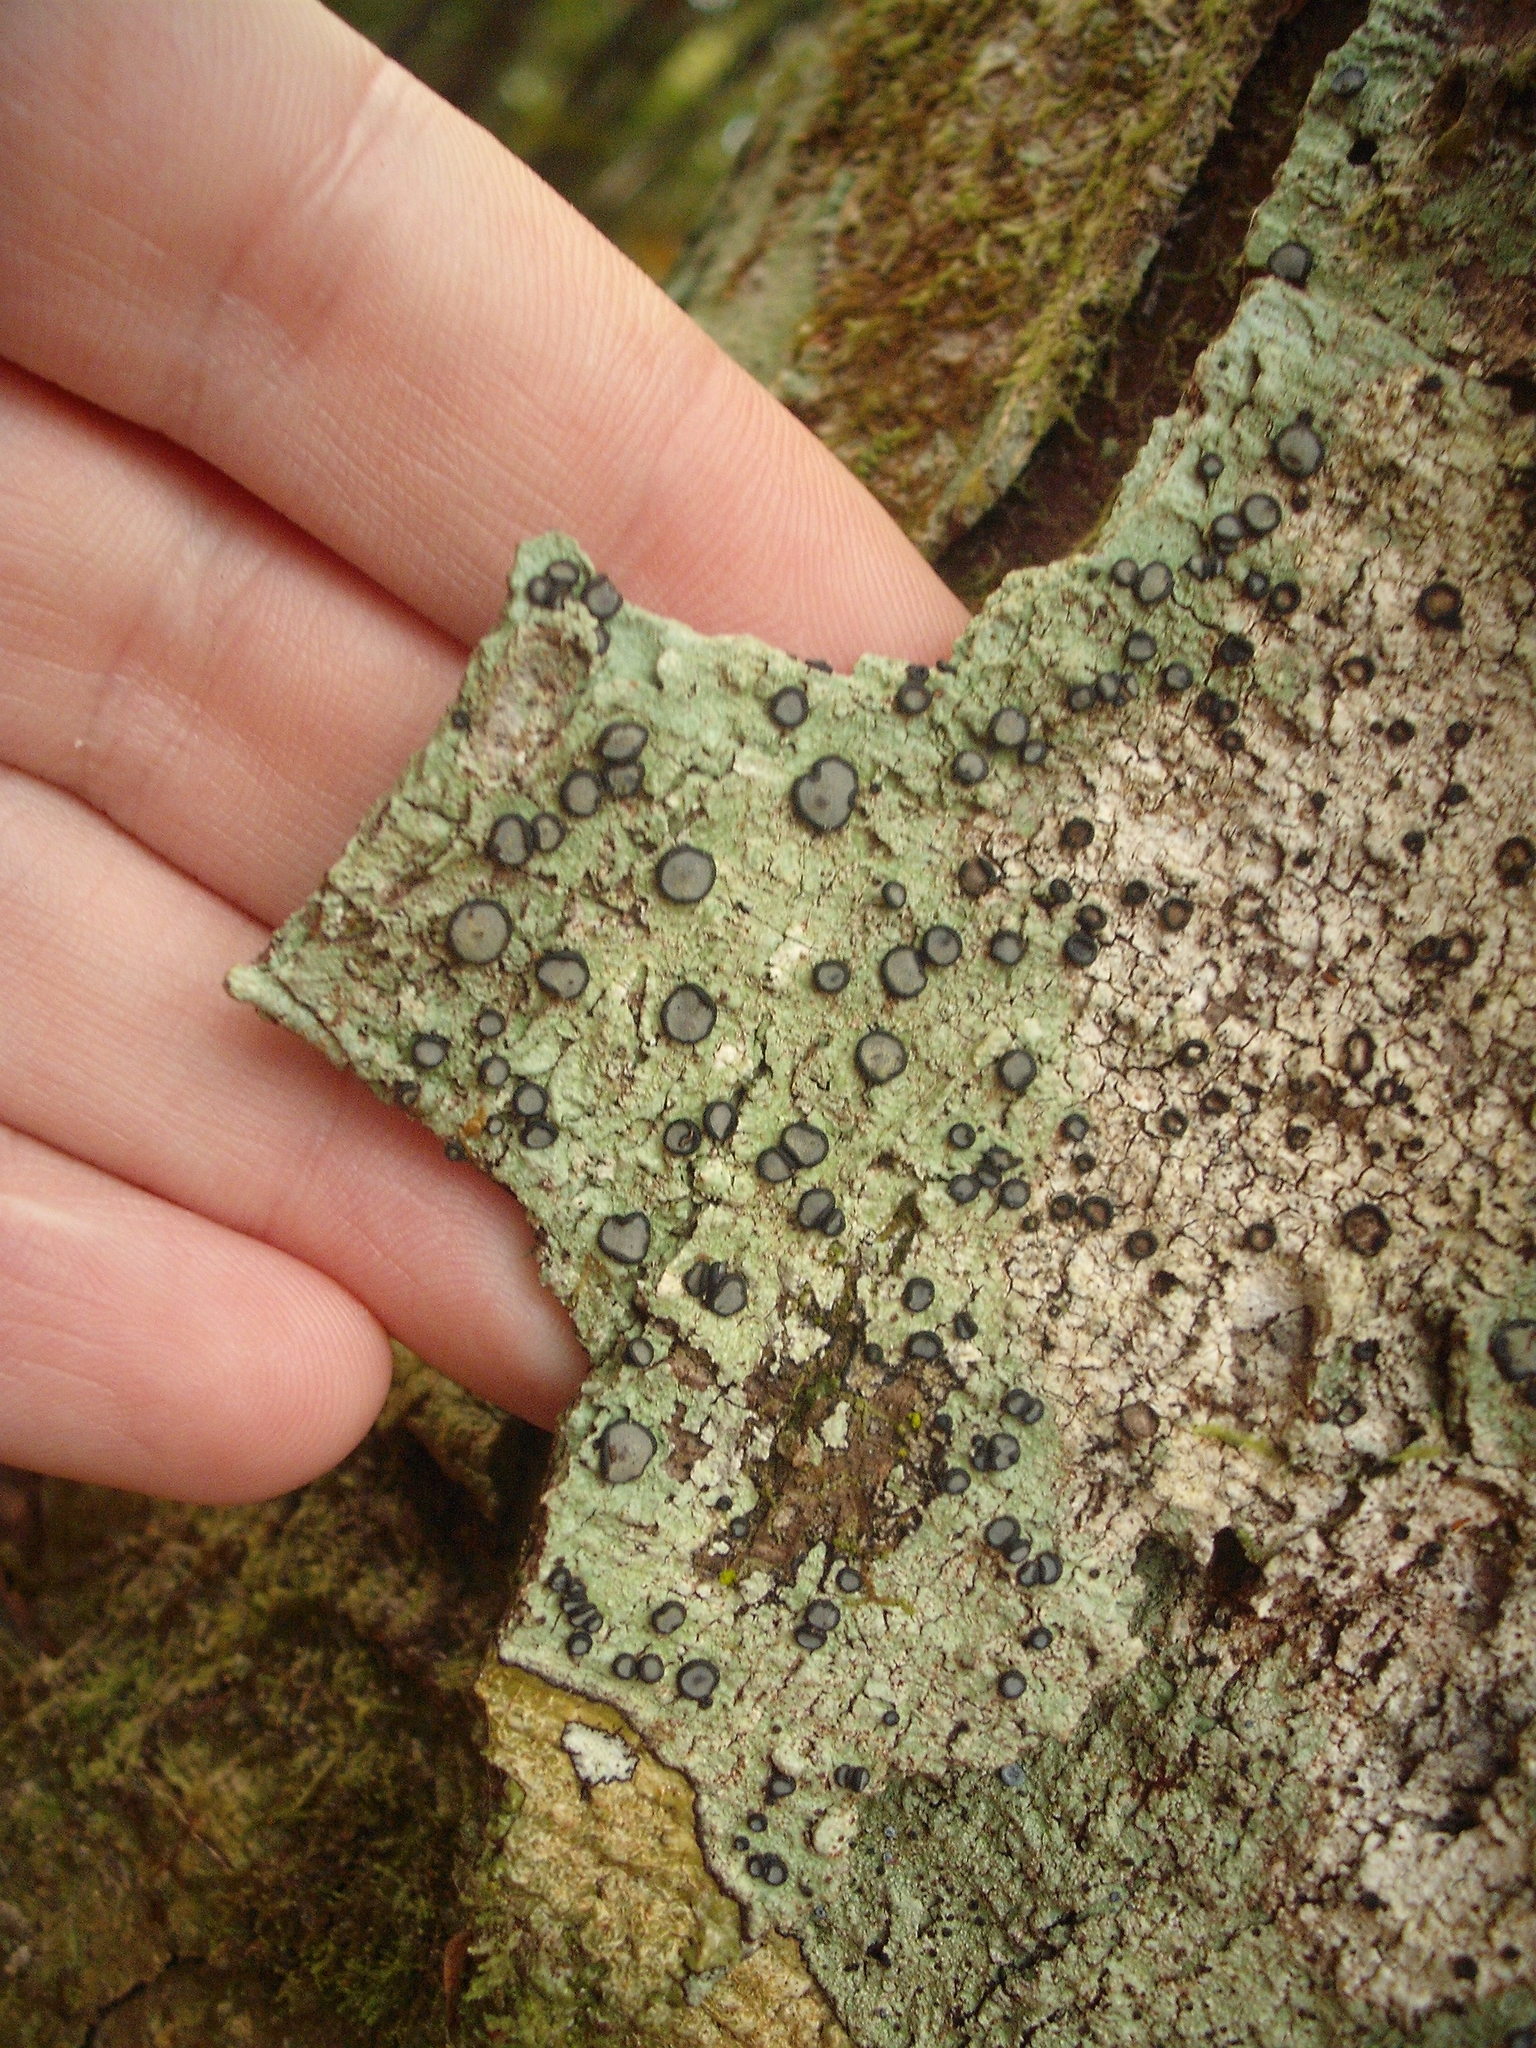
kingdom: Fungi
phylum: Ascomycota
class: Lecanoromycetes
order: Teloschistales
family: Megalosporaceae
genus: Megalospora
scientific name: Megalospora gompholoma
